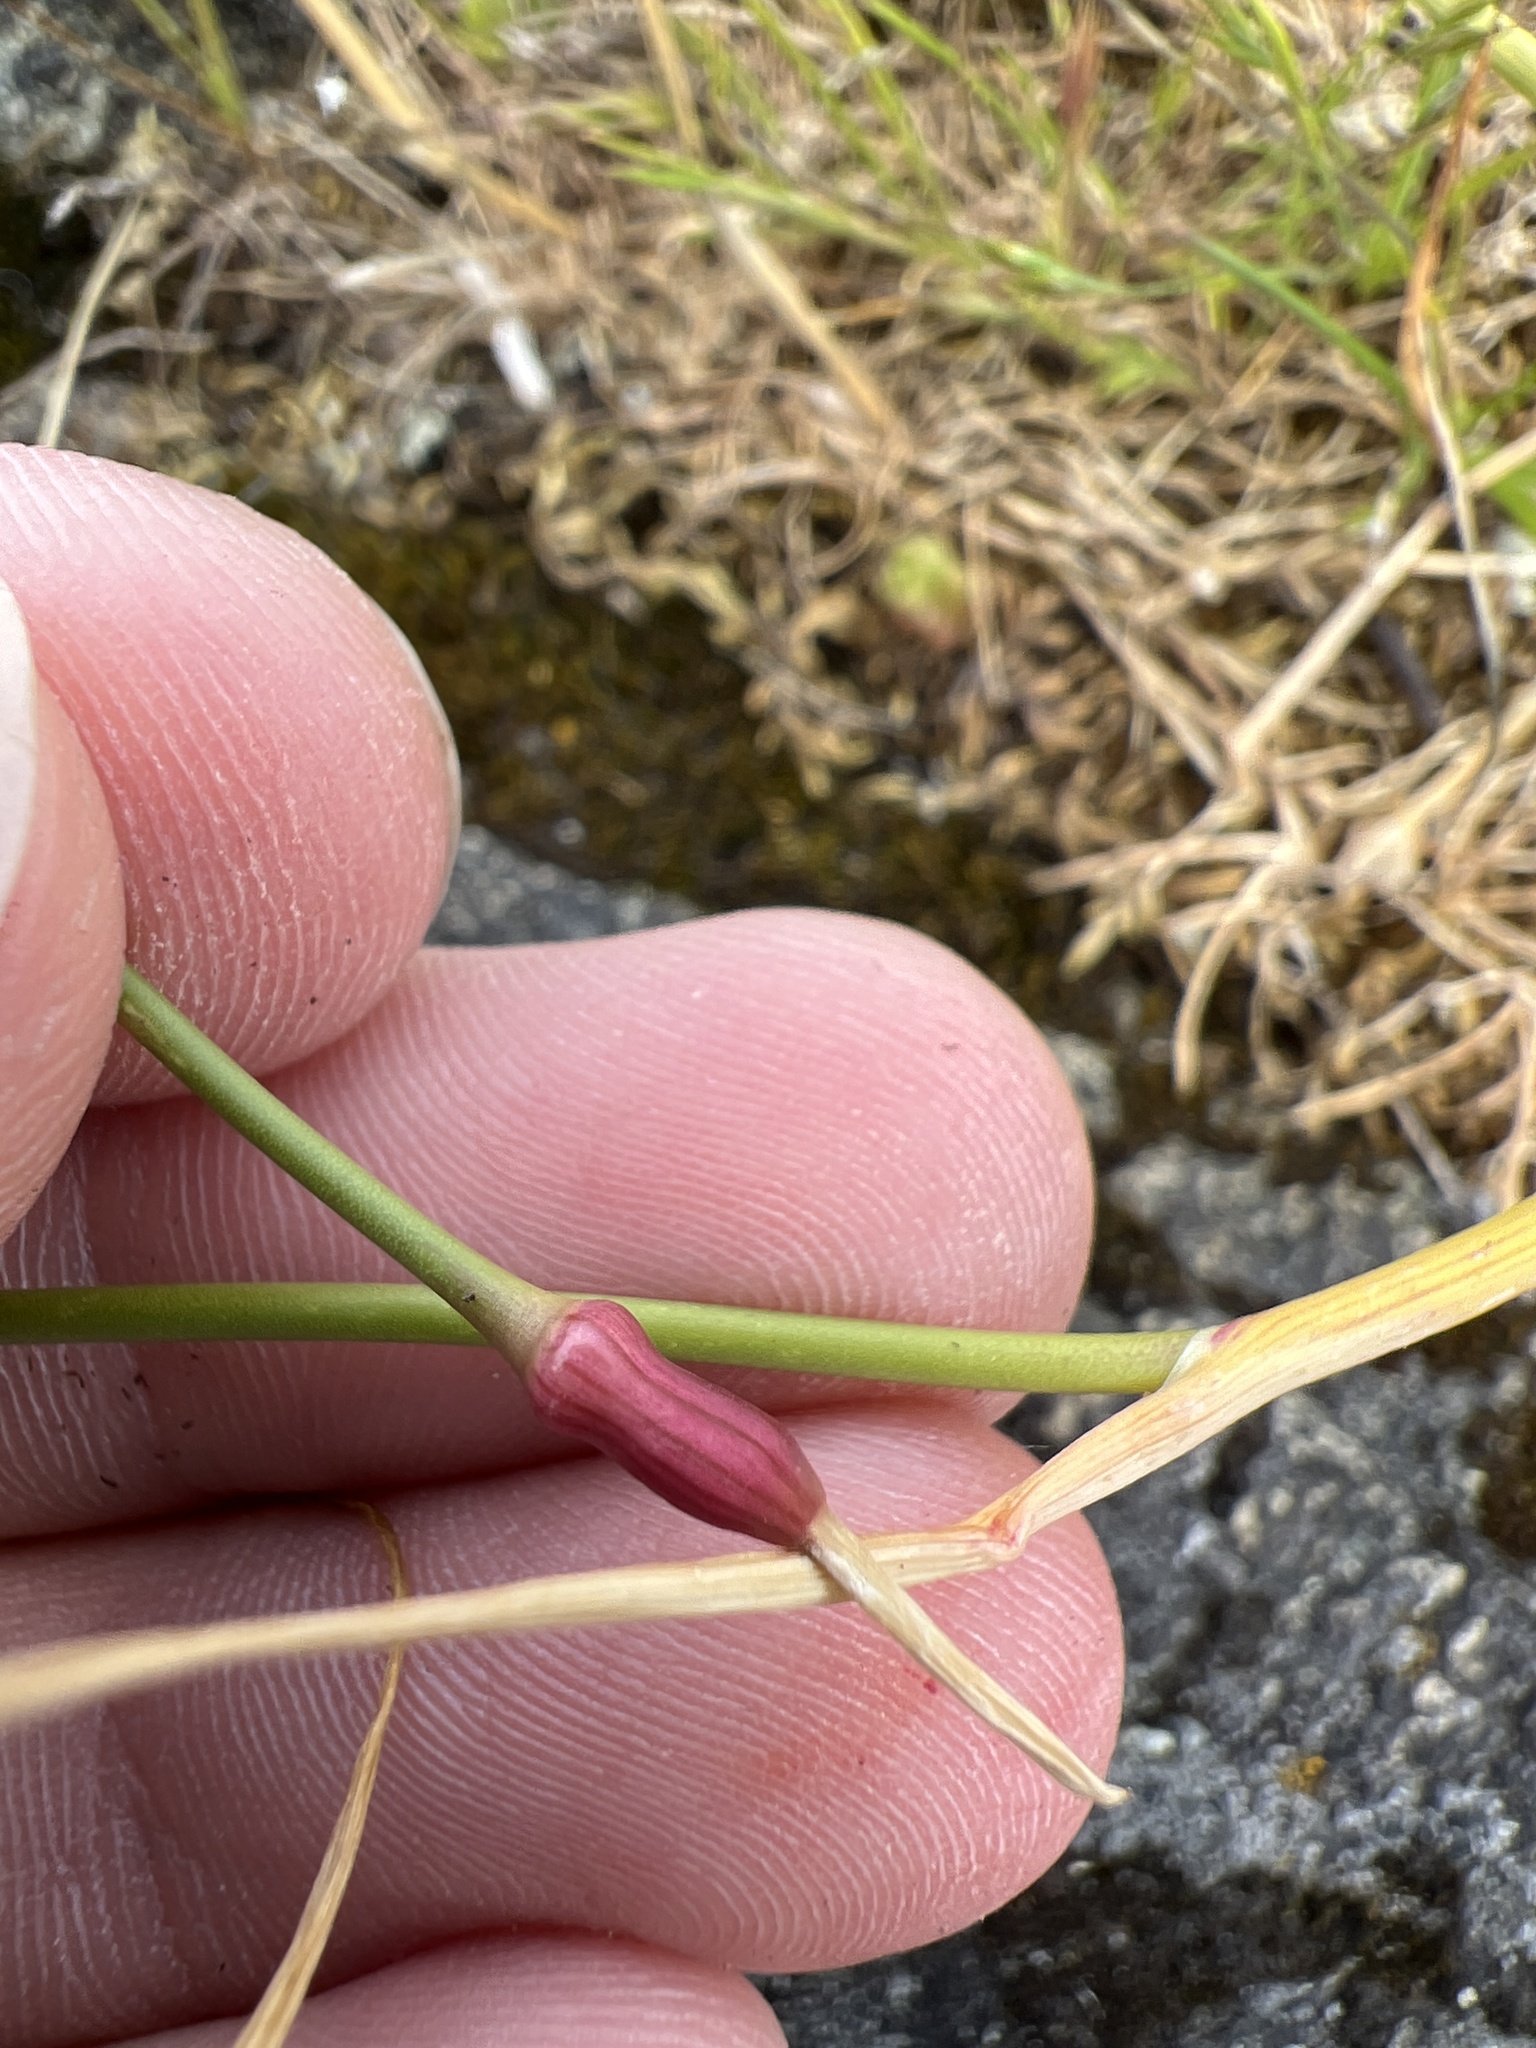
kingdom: Plantae
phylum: Tracheophyta
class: Liliopsida
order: Asparagales
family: Amaryllidaceae
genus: Allium
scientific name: Allium vineale
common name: Crow garlic
